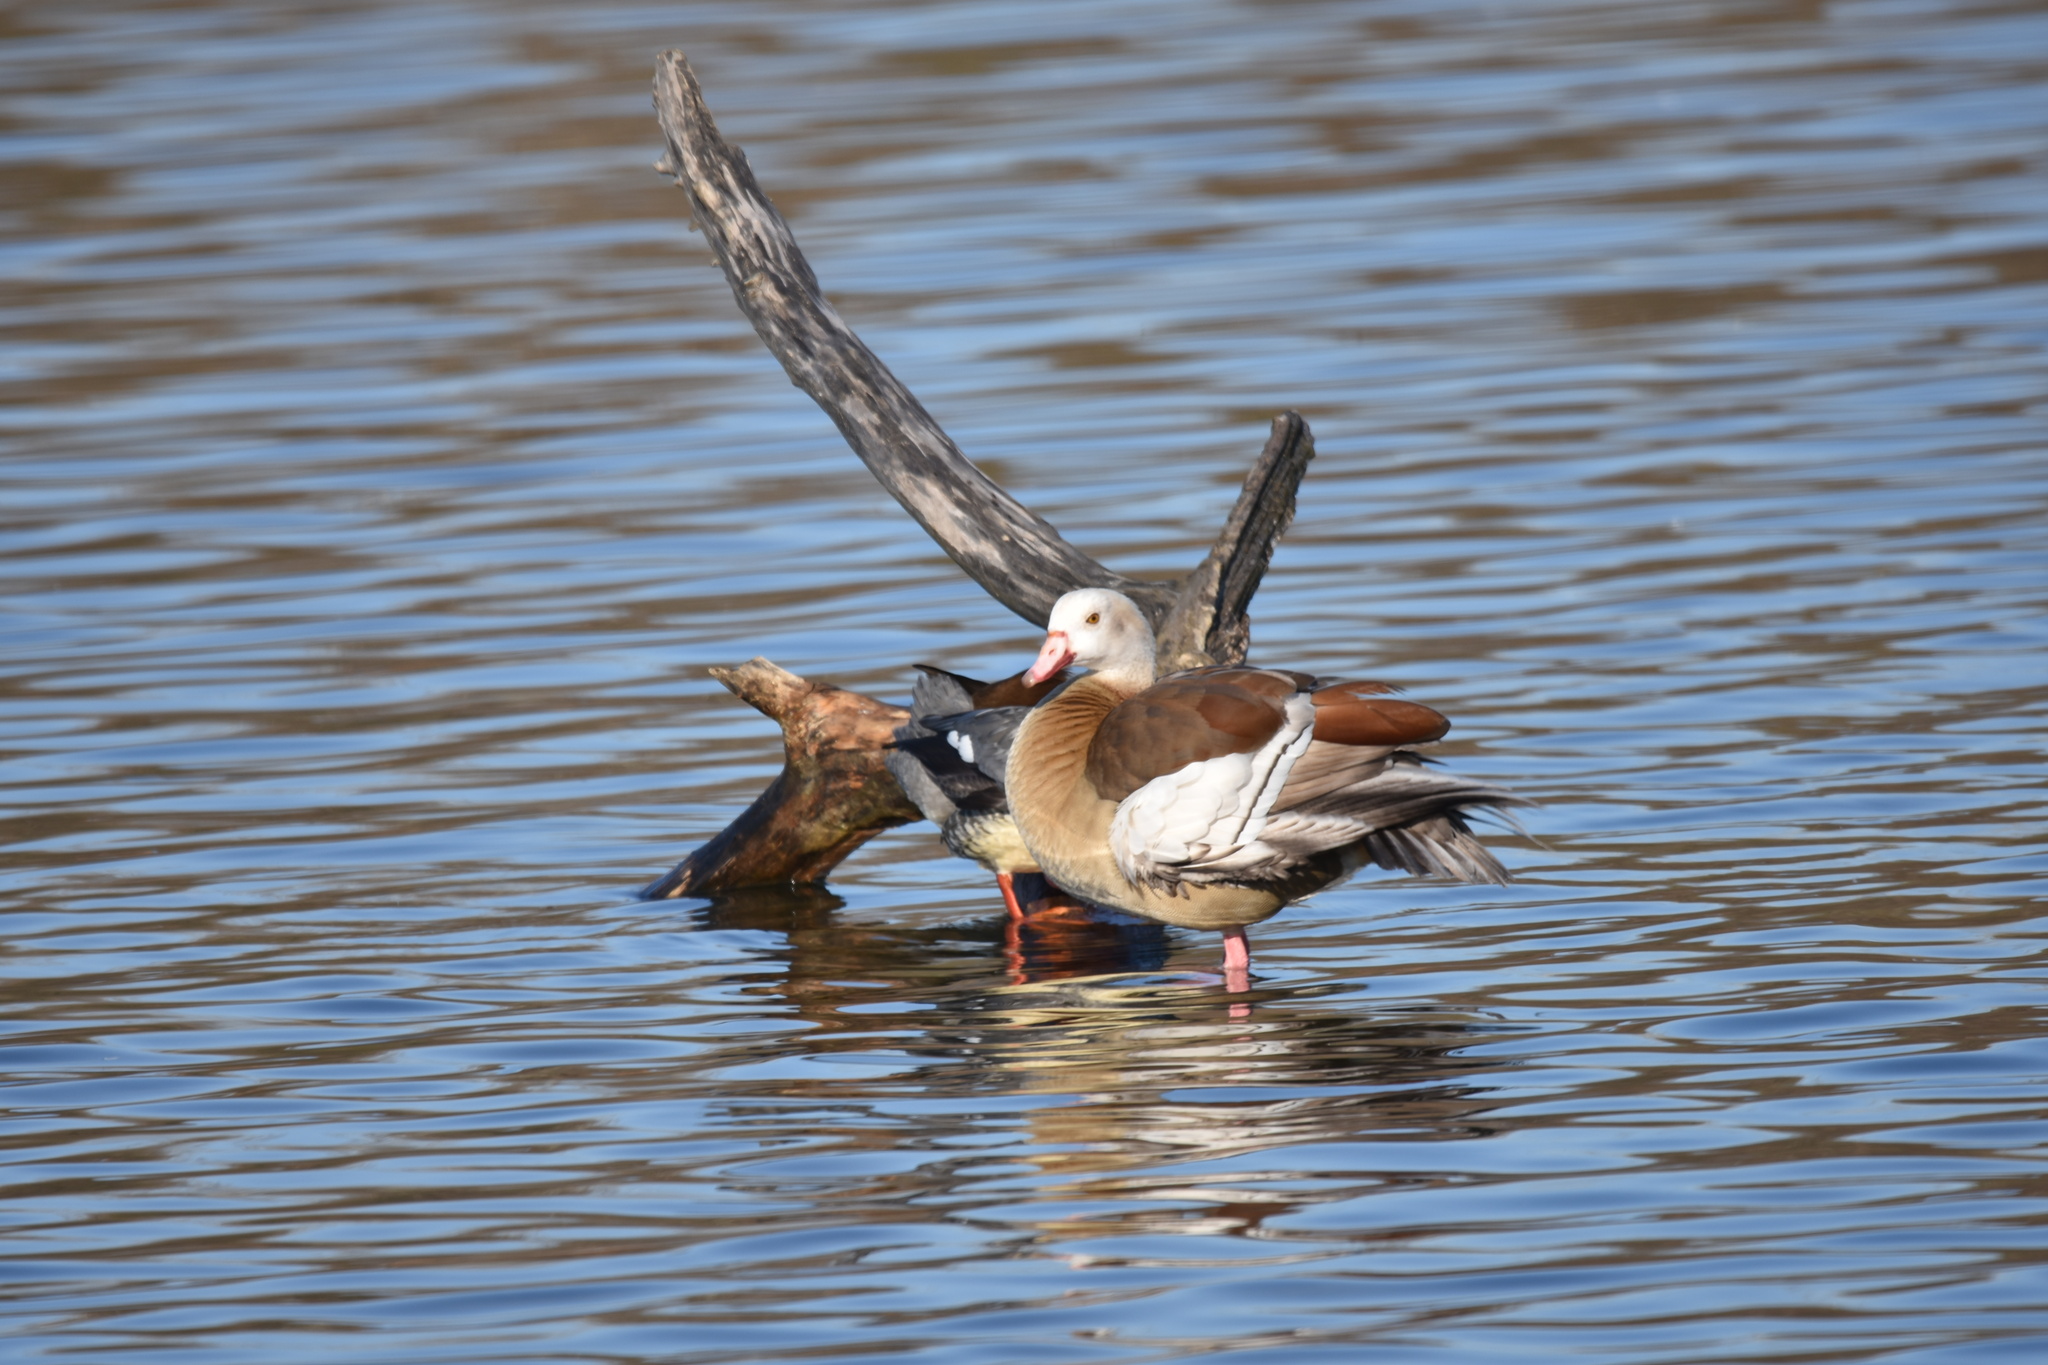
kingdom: Animalia
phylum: Chordata
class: Aves
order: Anseriformes
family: Anatidae
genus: Alopochen
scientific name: Alopochen aegyptiaca
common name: Egyptian goose
